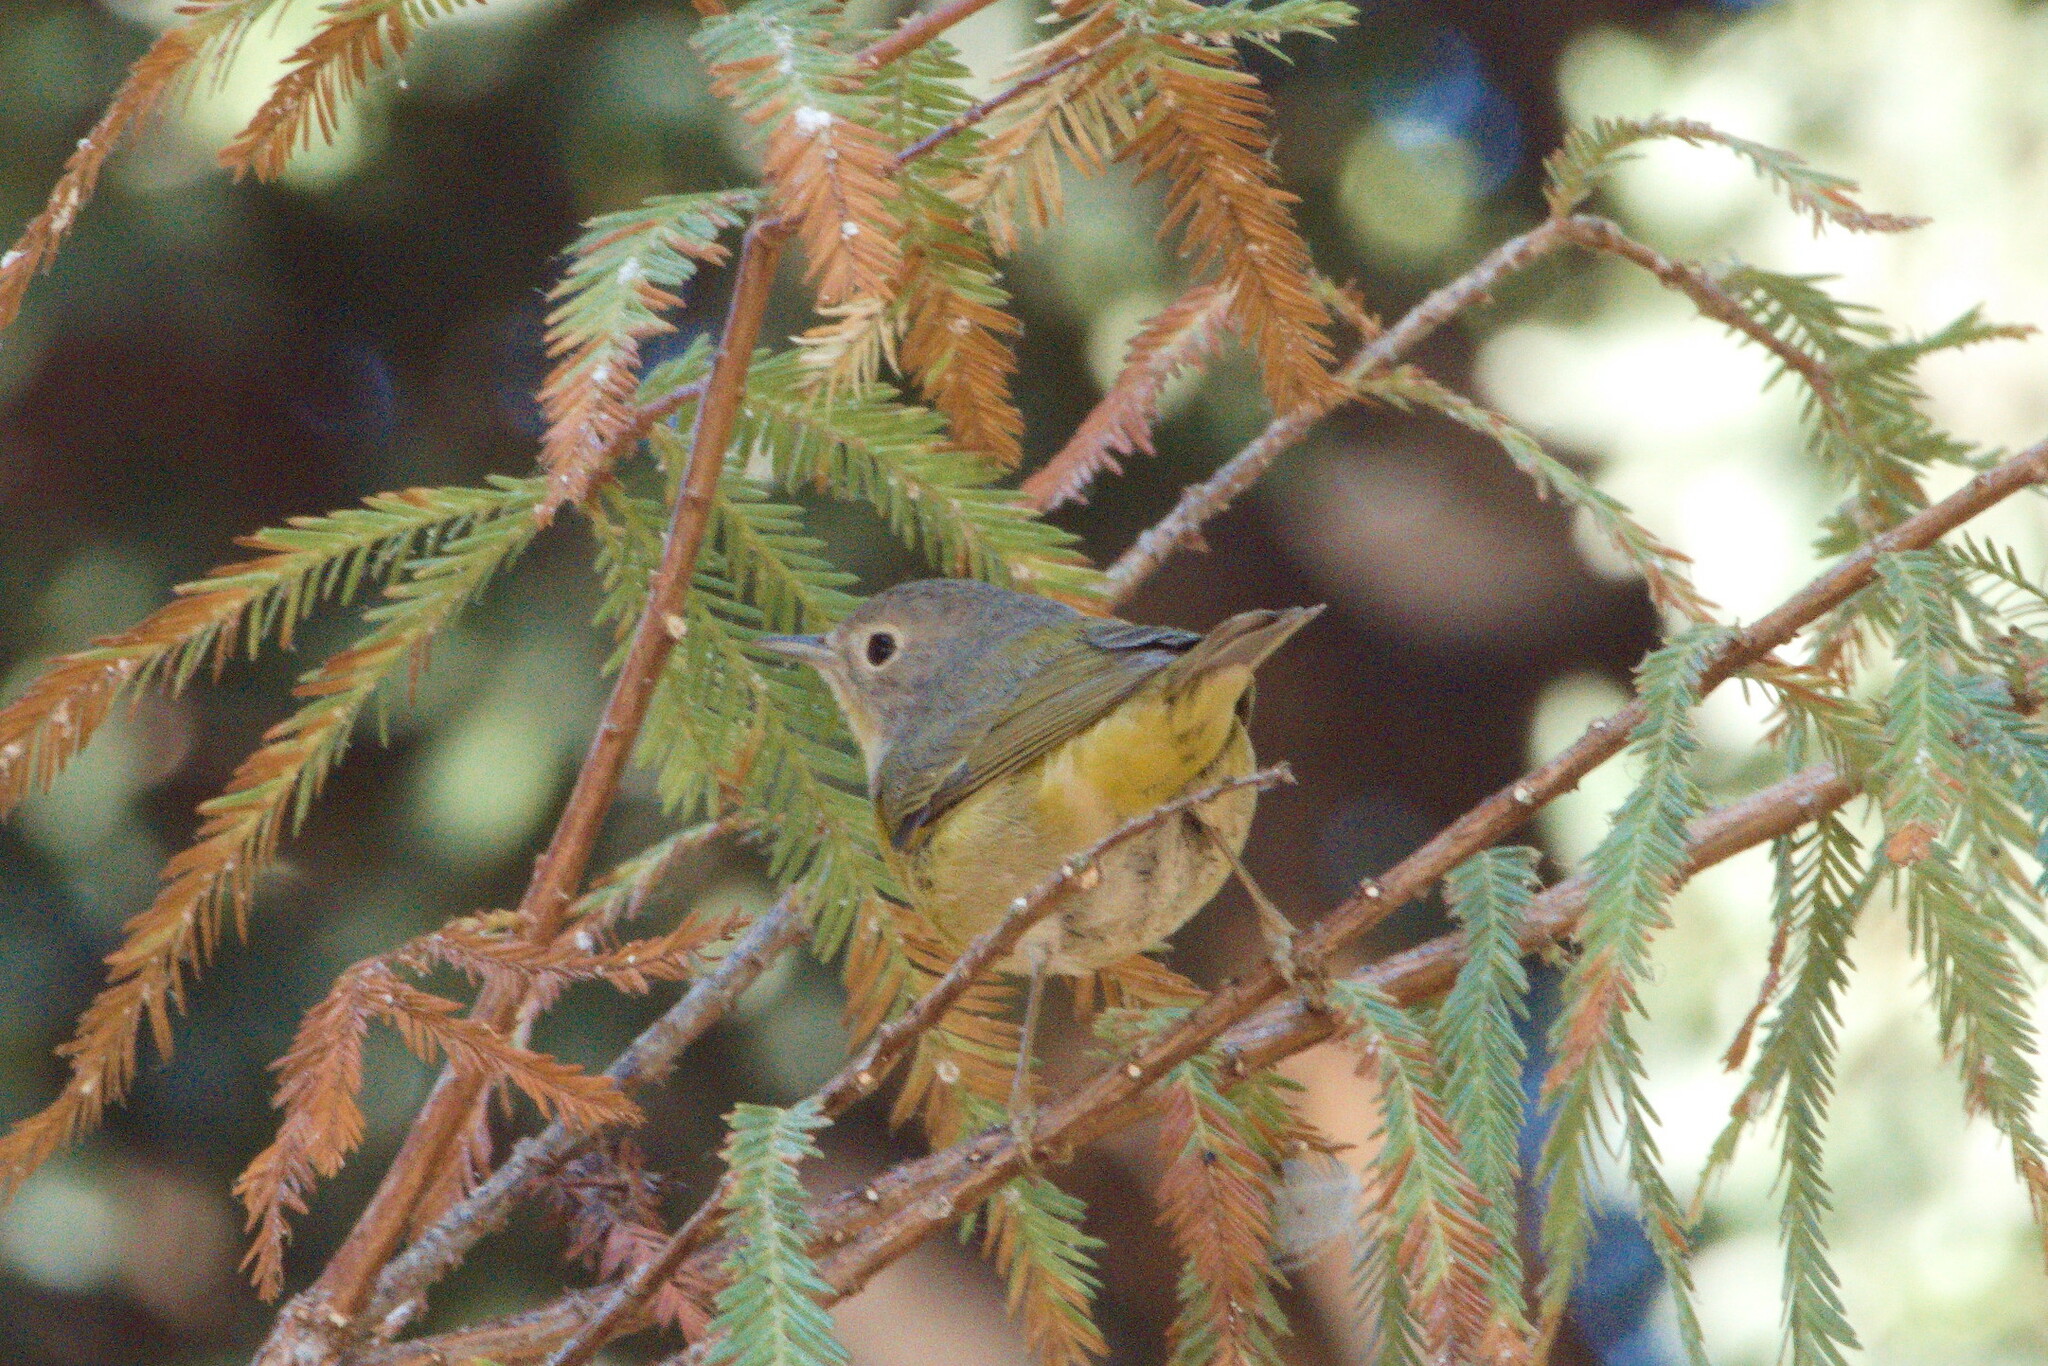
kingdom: Animalia
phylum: Chordata
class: Aves
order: Passeriformes
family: Parulidae
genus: Leiothlypis
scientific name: Leiothlypis ruficapilla
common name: Nashville warbler
